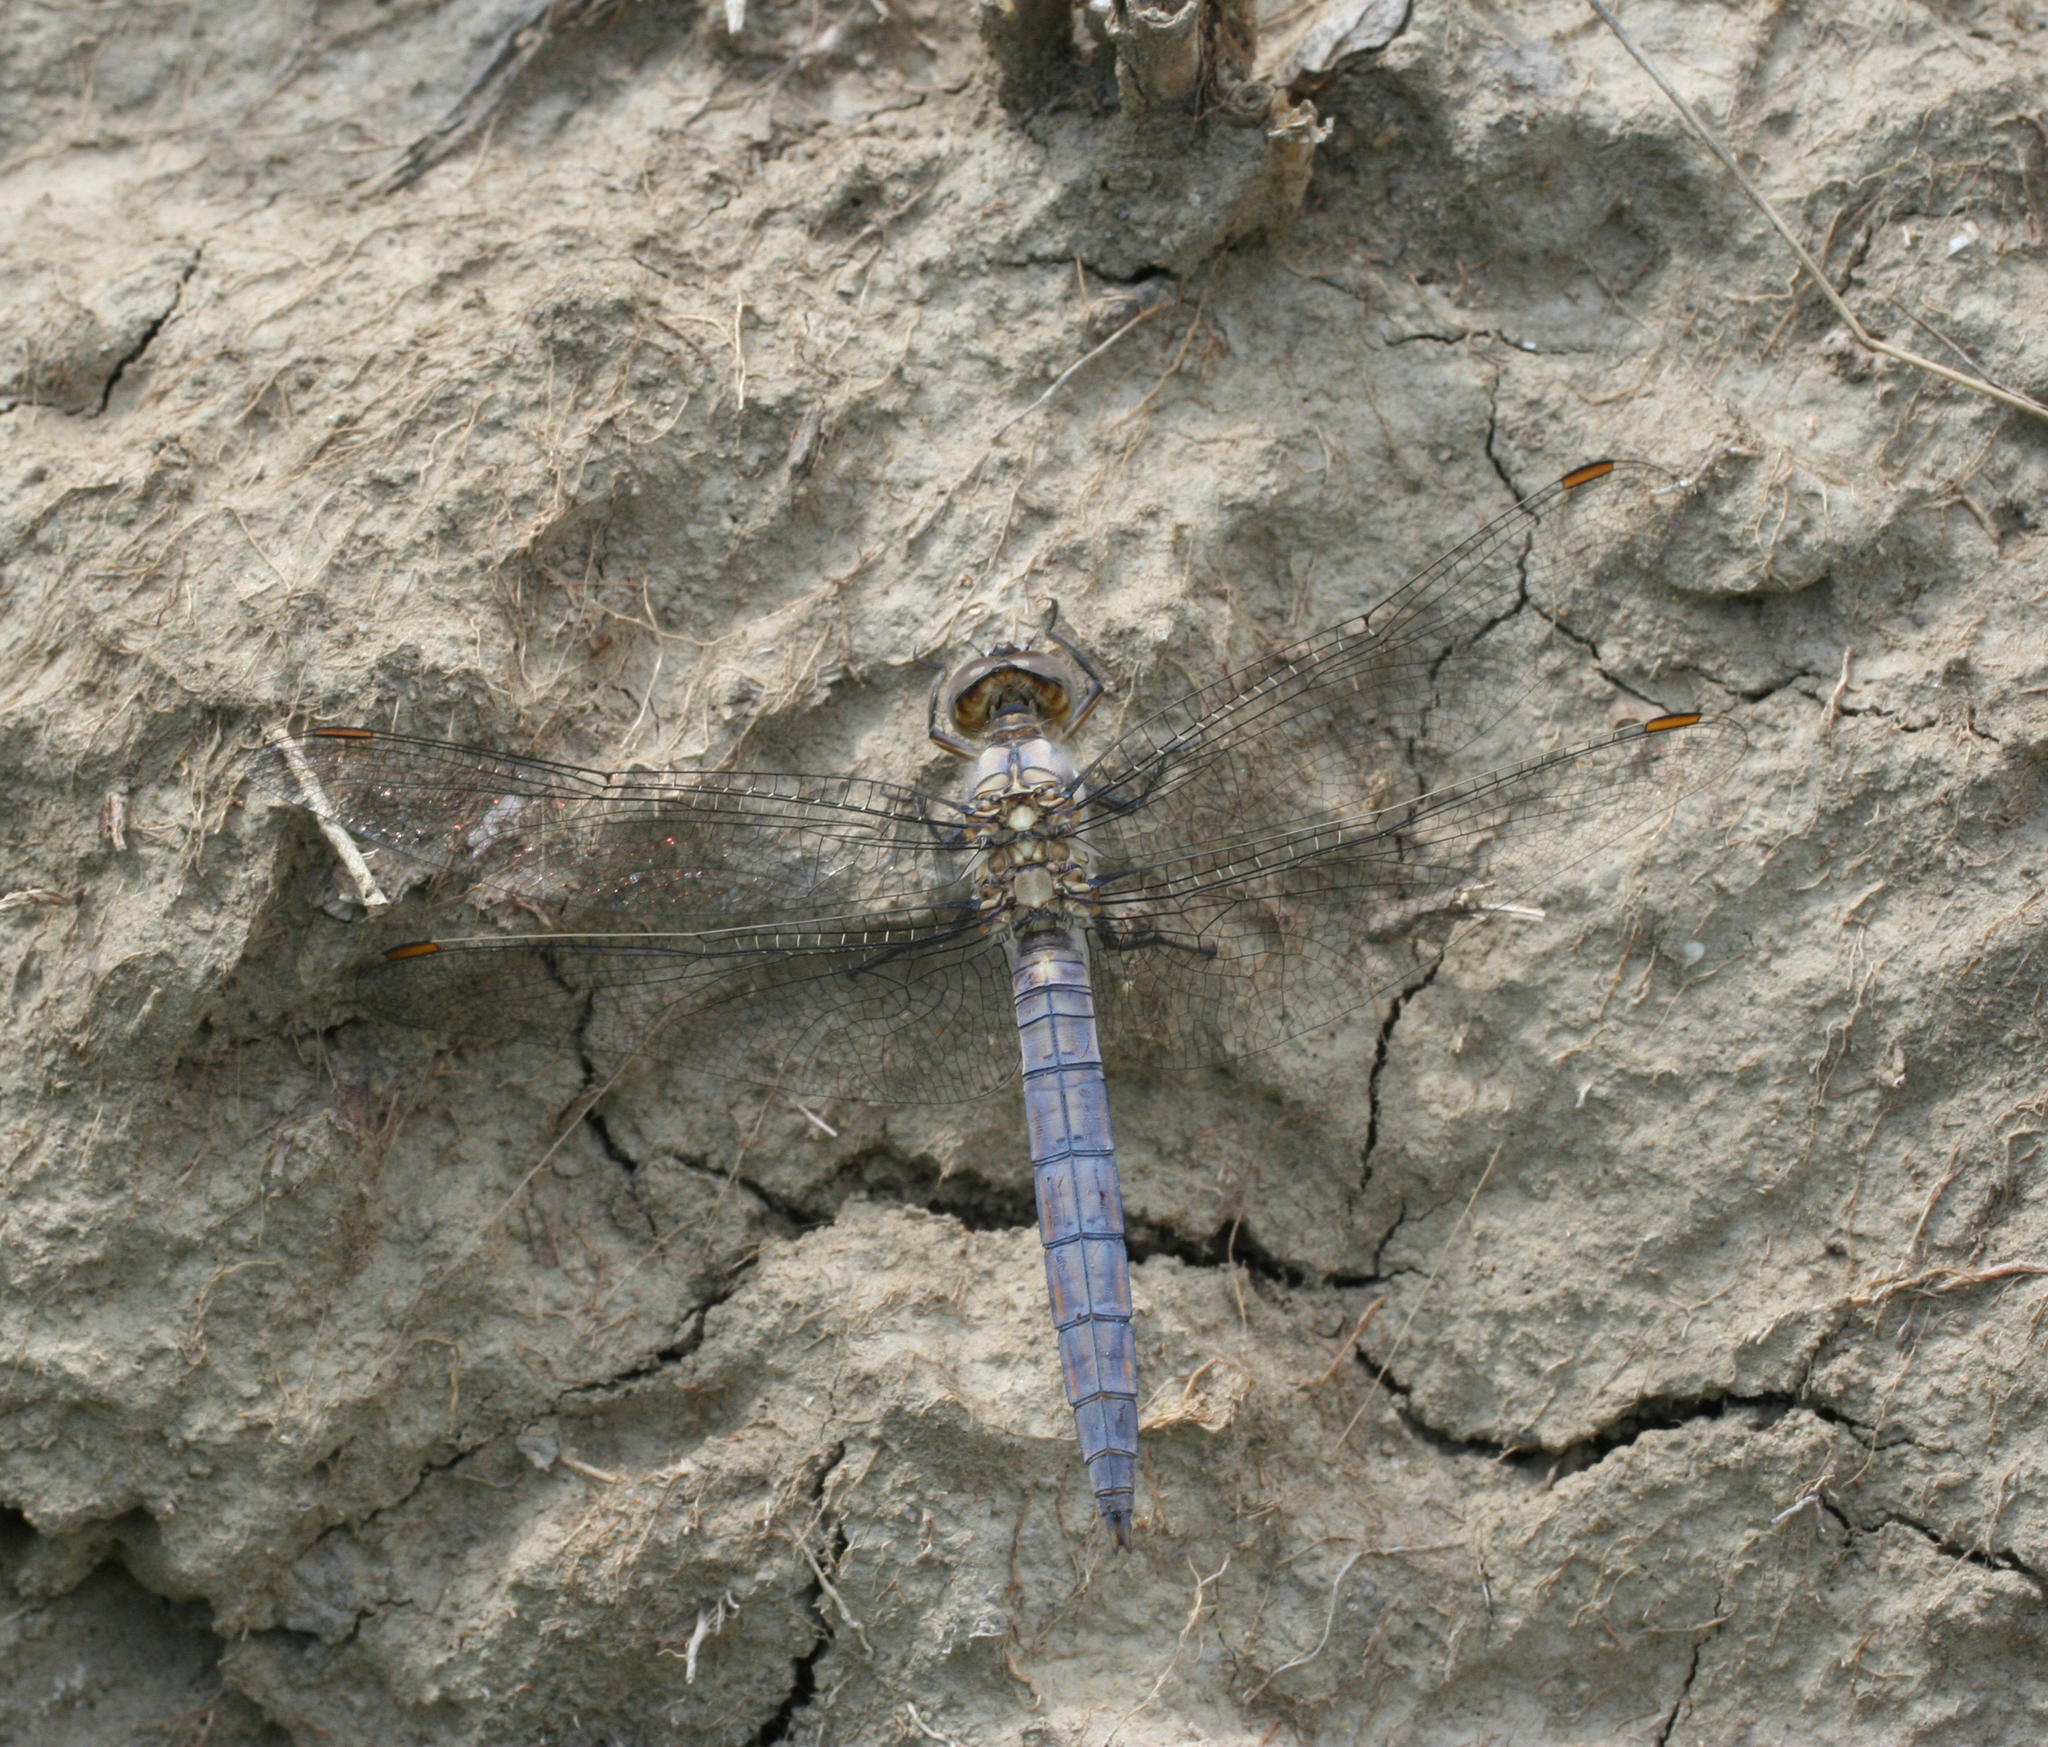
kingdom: Animalia
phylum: Arthropoda
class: Insecta
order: Odonata
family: Libellulidae
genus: Orthetrum
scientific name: Orthetrum brunneum
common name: Southern skimmer
